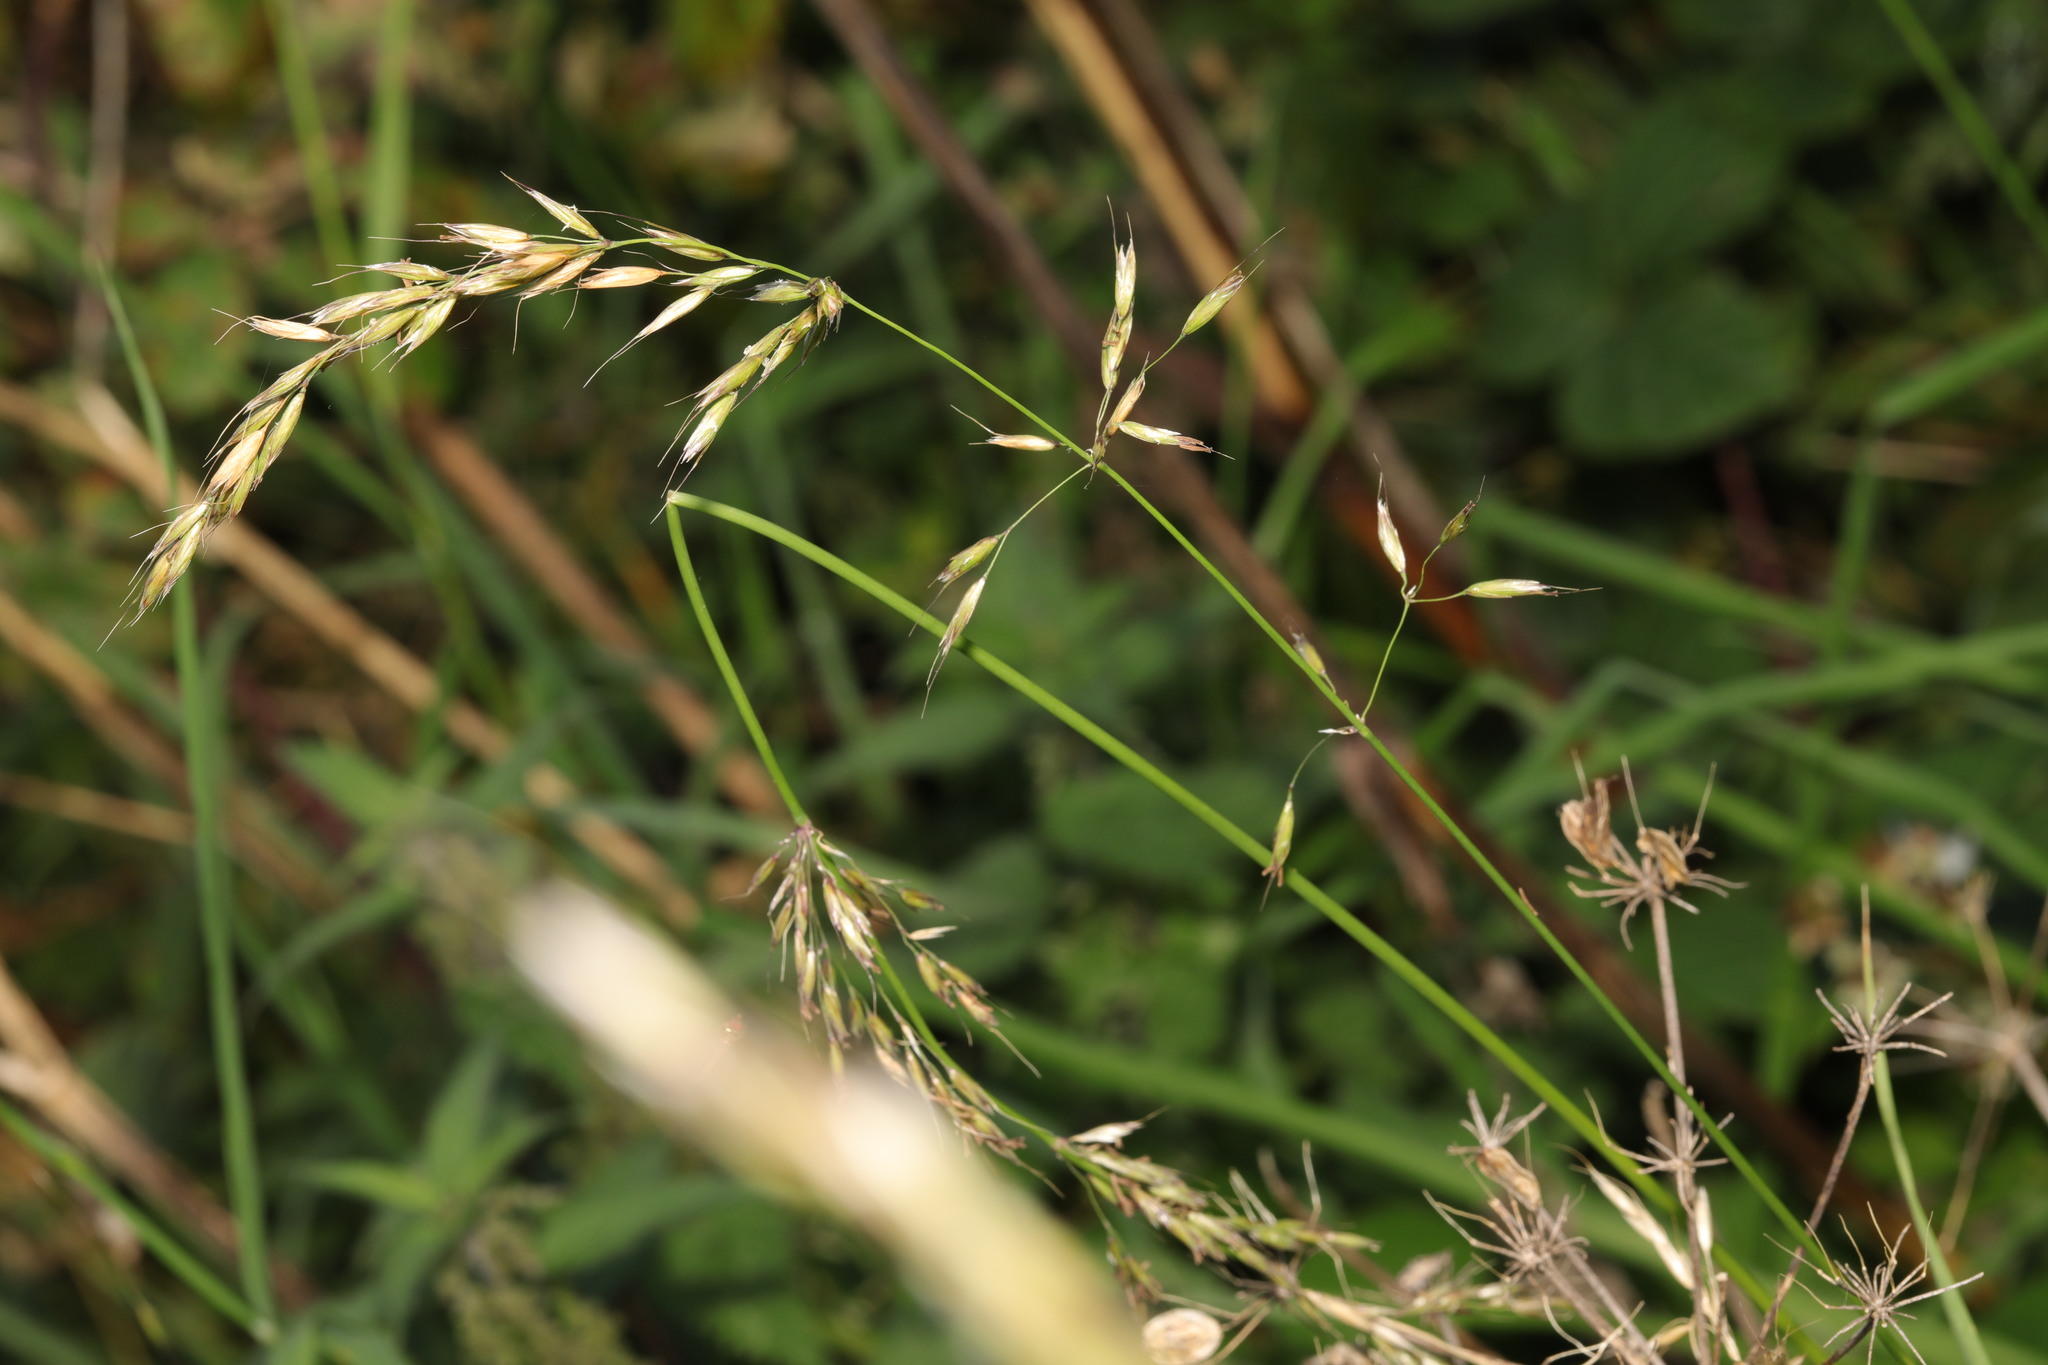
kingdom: Plantae
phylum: Tracheophyta
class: Liliopsida
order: Poales
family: Poaceae
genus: Arrhenatherum
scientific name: Arrhenatherum elatius
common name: Tall oatgrass
